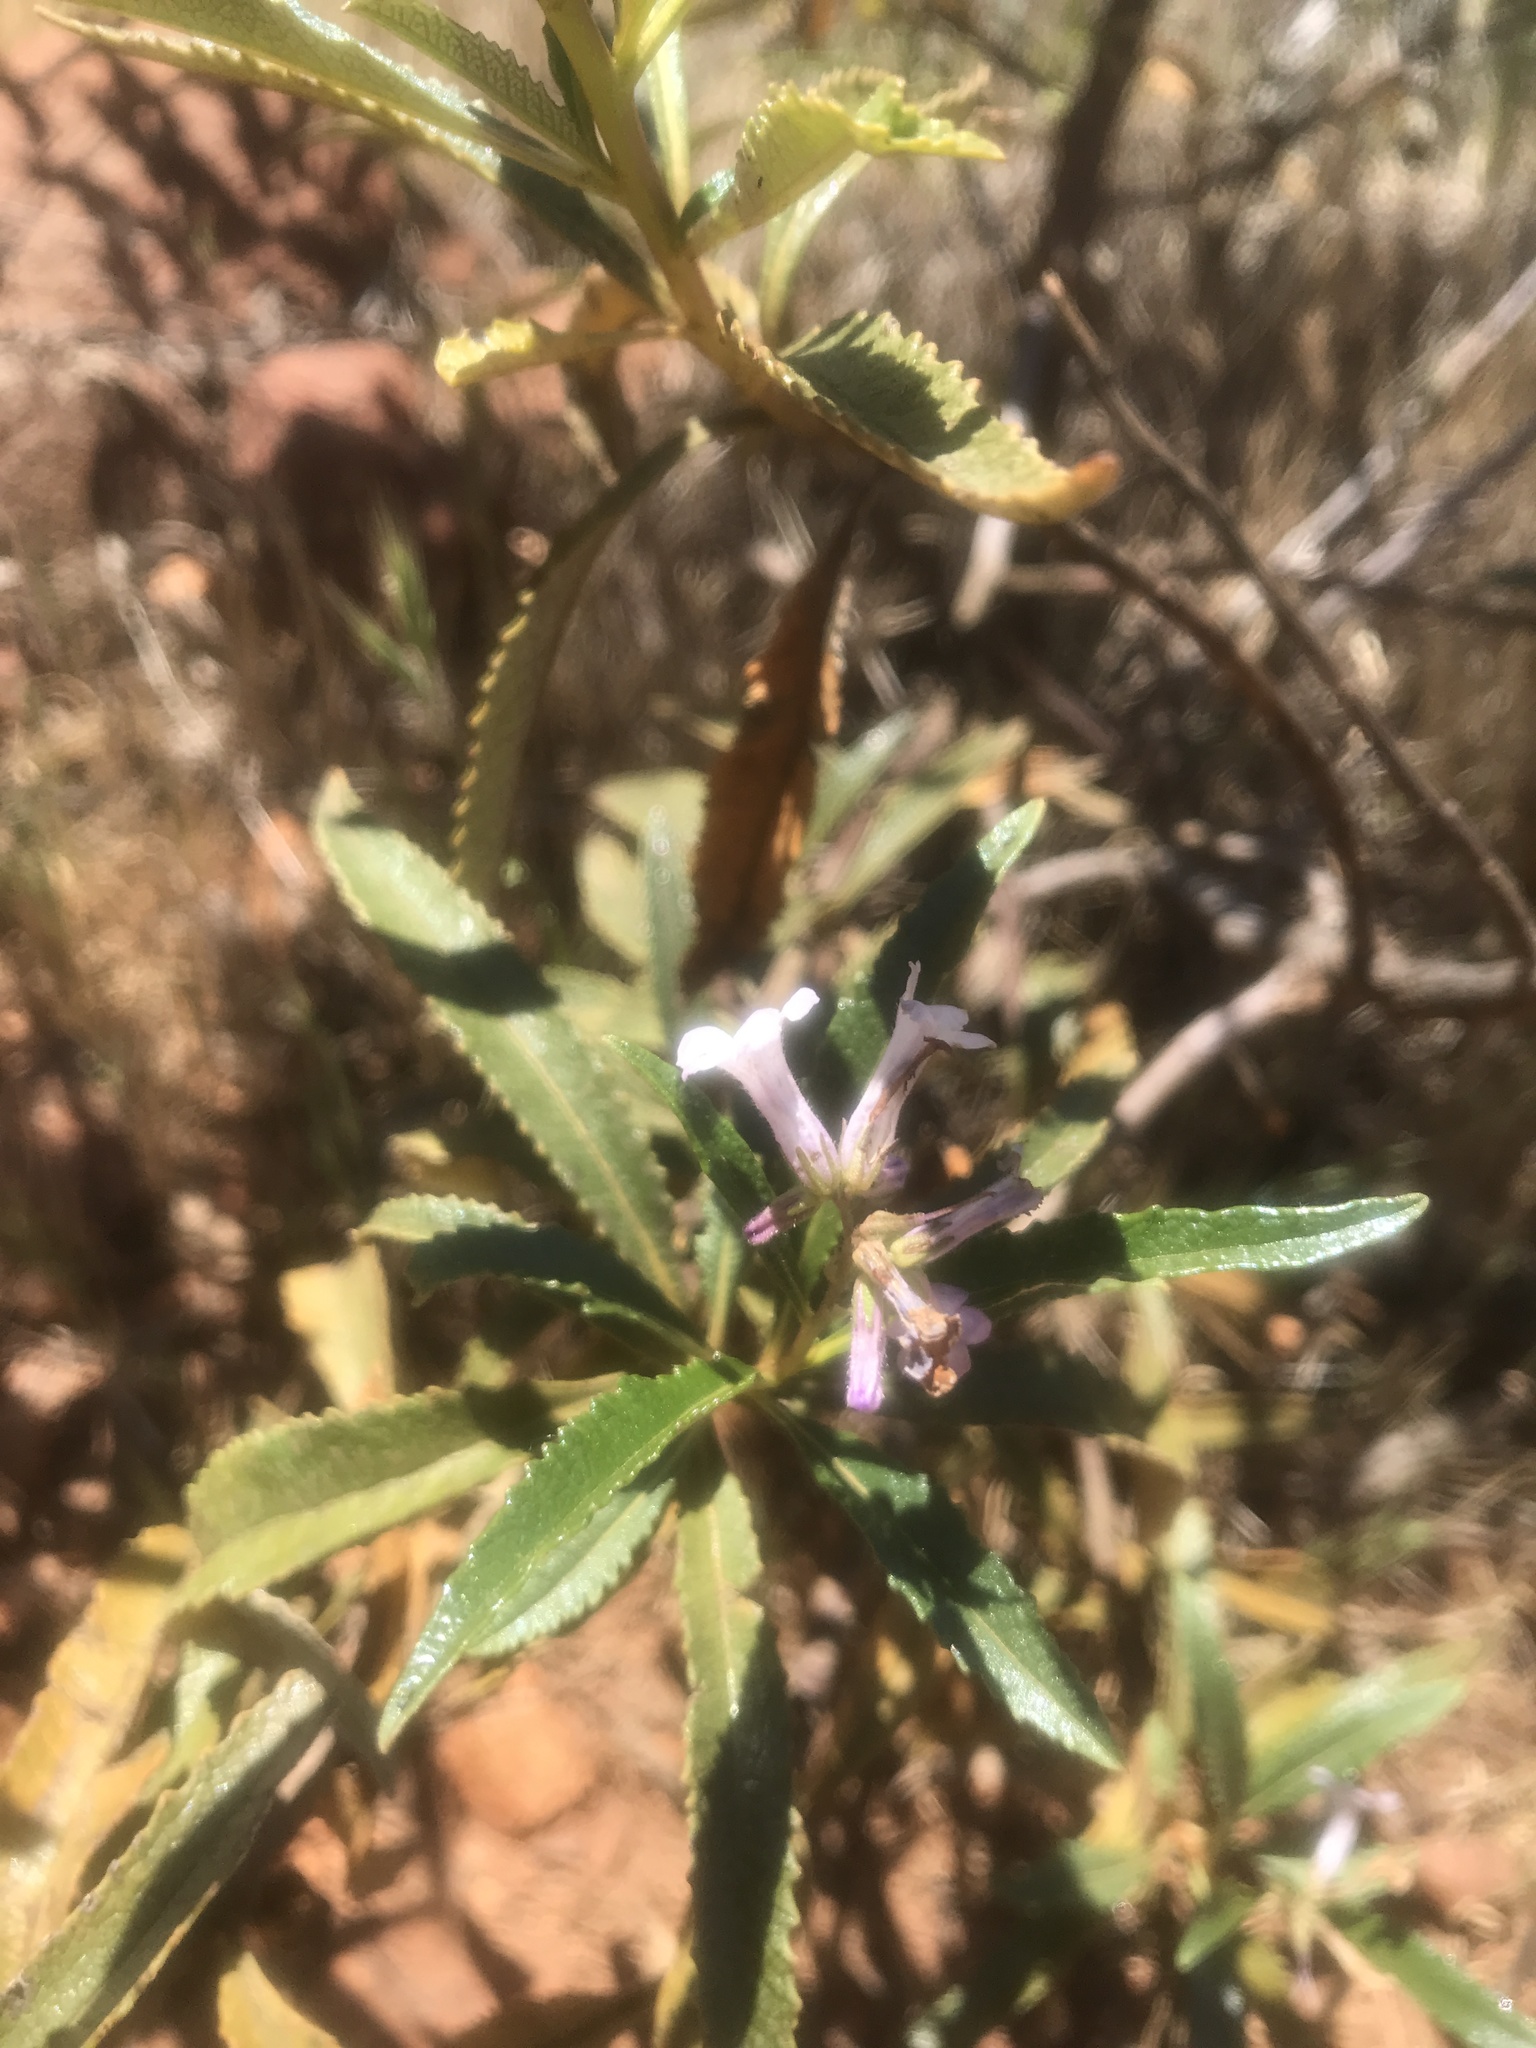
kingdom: Plantae
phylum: Tracheophyta
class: Magnoliopsida
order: Boraginales
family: Namaceae
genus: Eriodictyon
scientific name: Eriodictyon californicum
